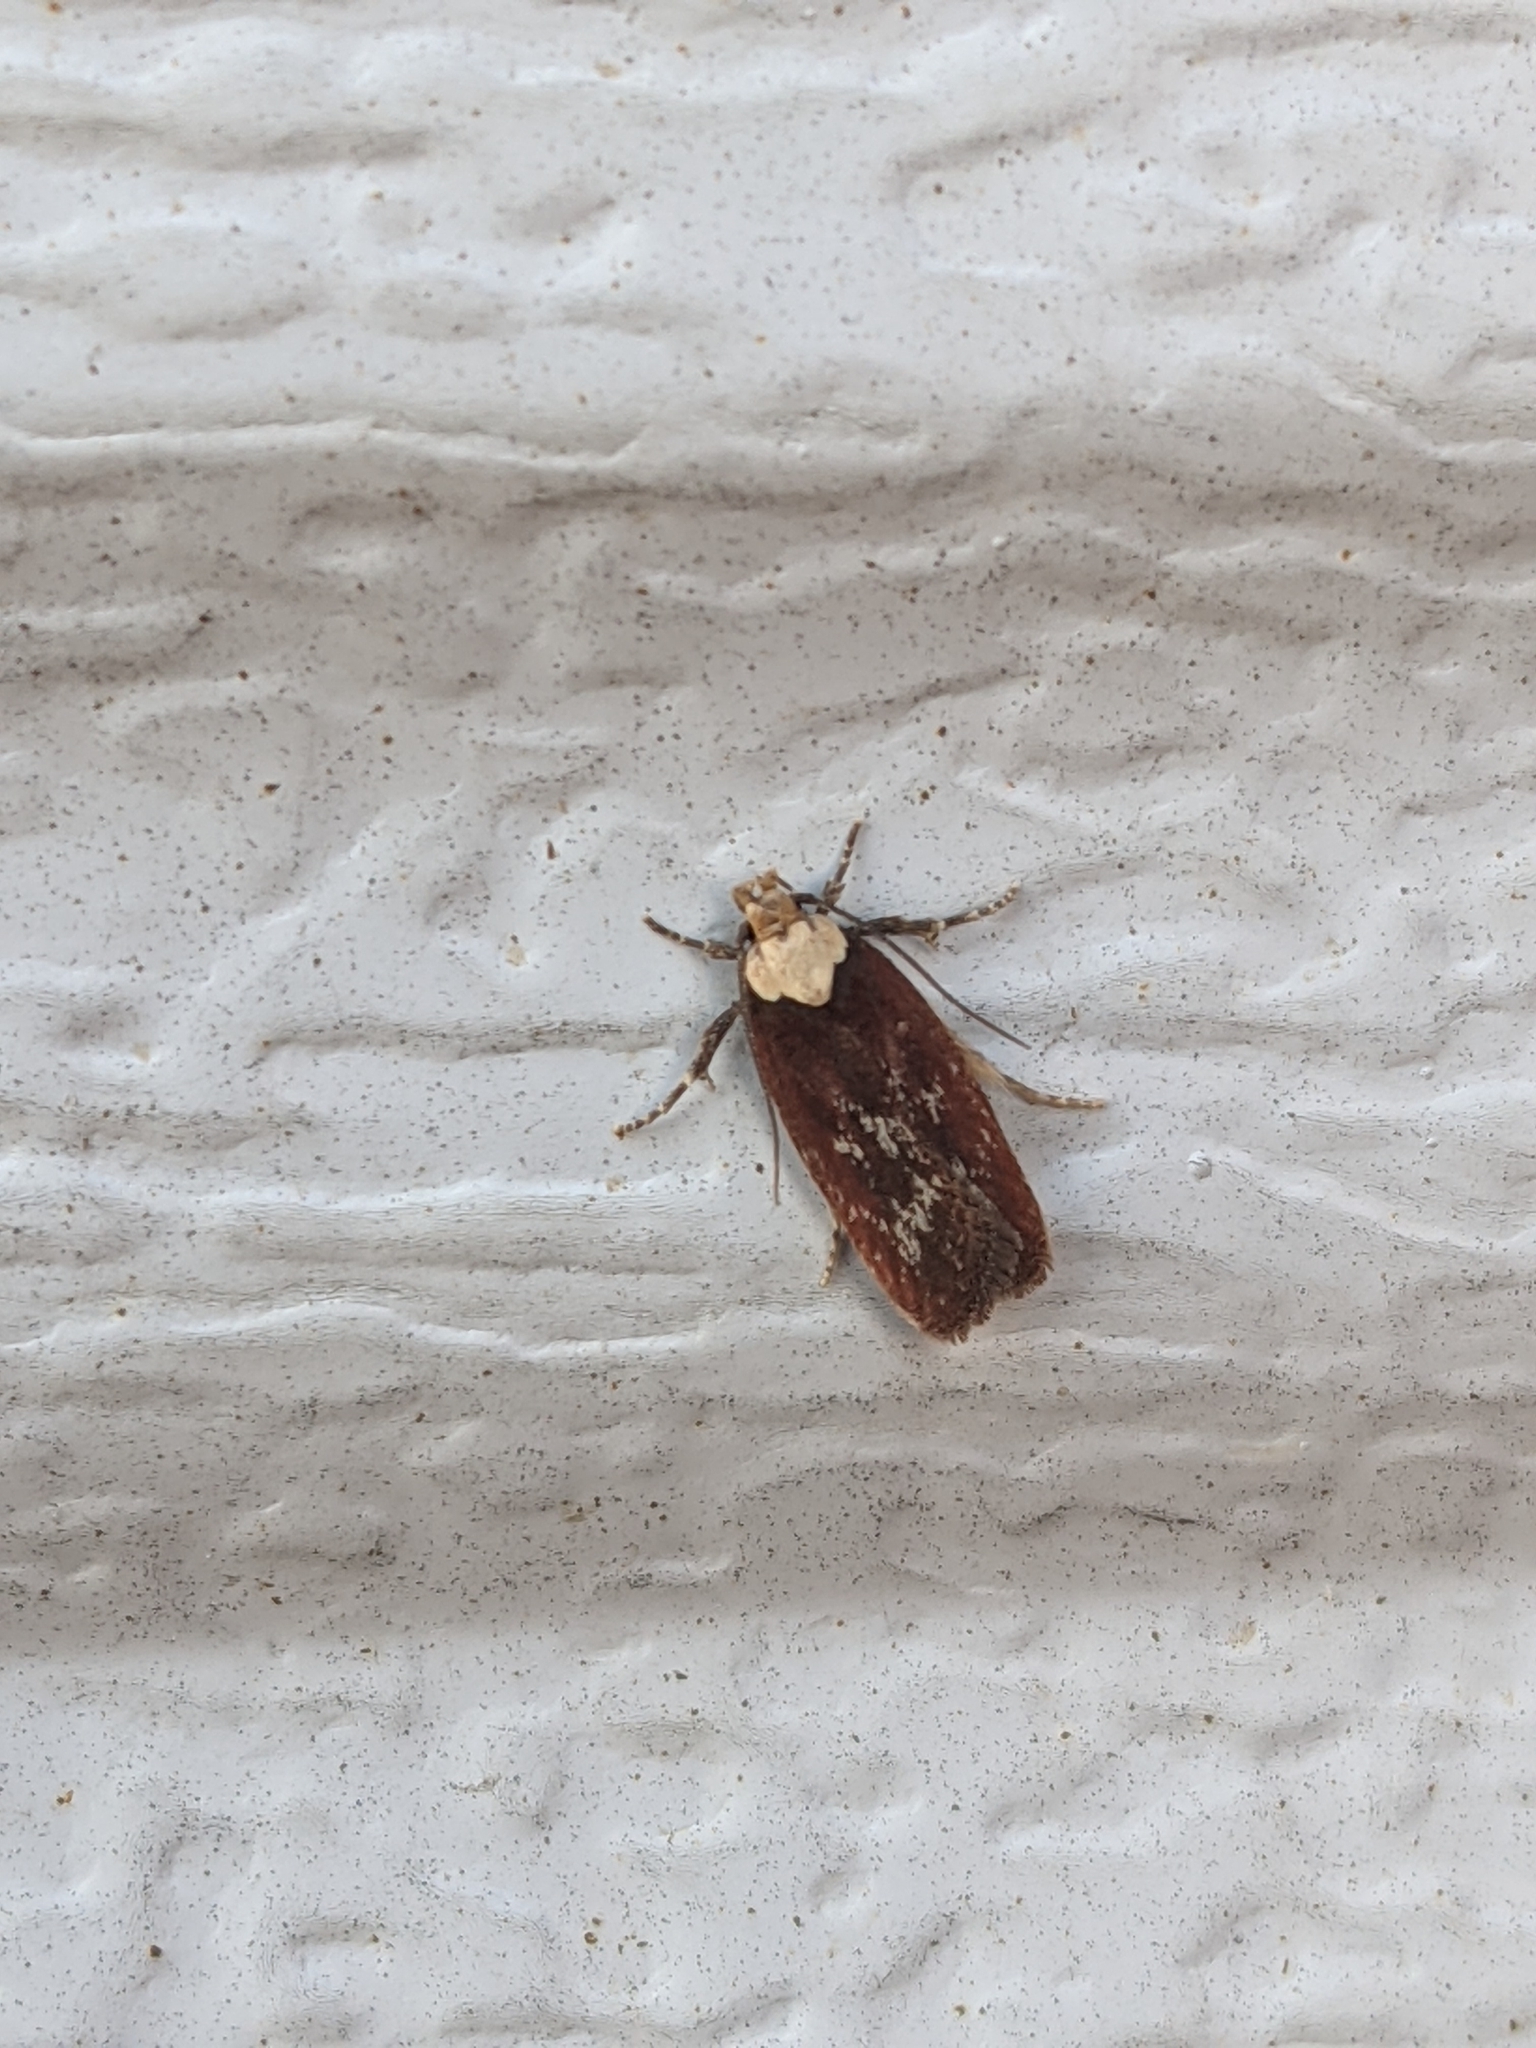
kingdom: Animalia
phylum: Arthropoda
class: Insecta
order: Lepidoptera
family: Depressariidae
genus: Depressaria
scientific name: Depressaria depressana
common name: Lost flat-body
